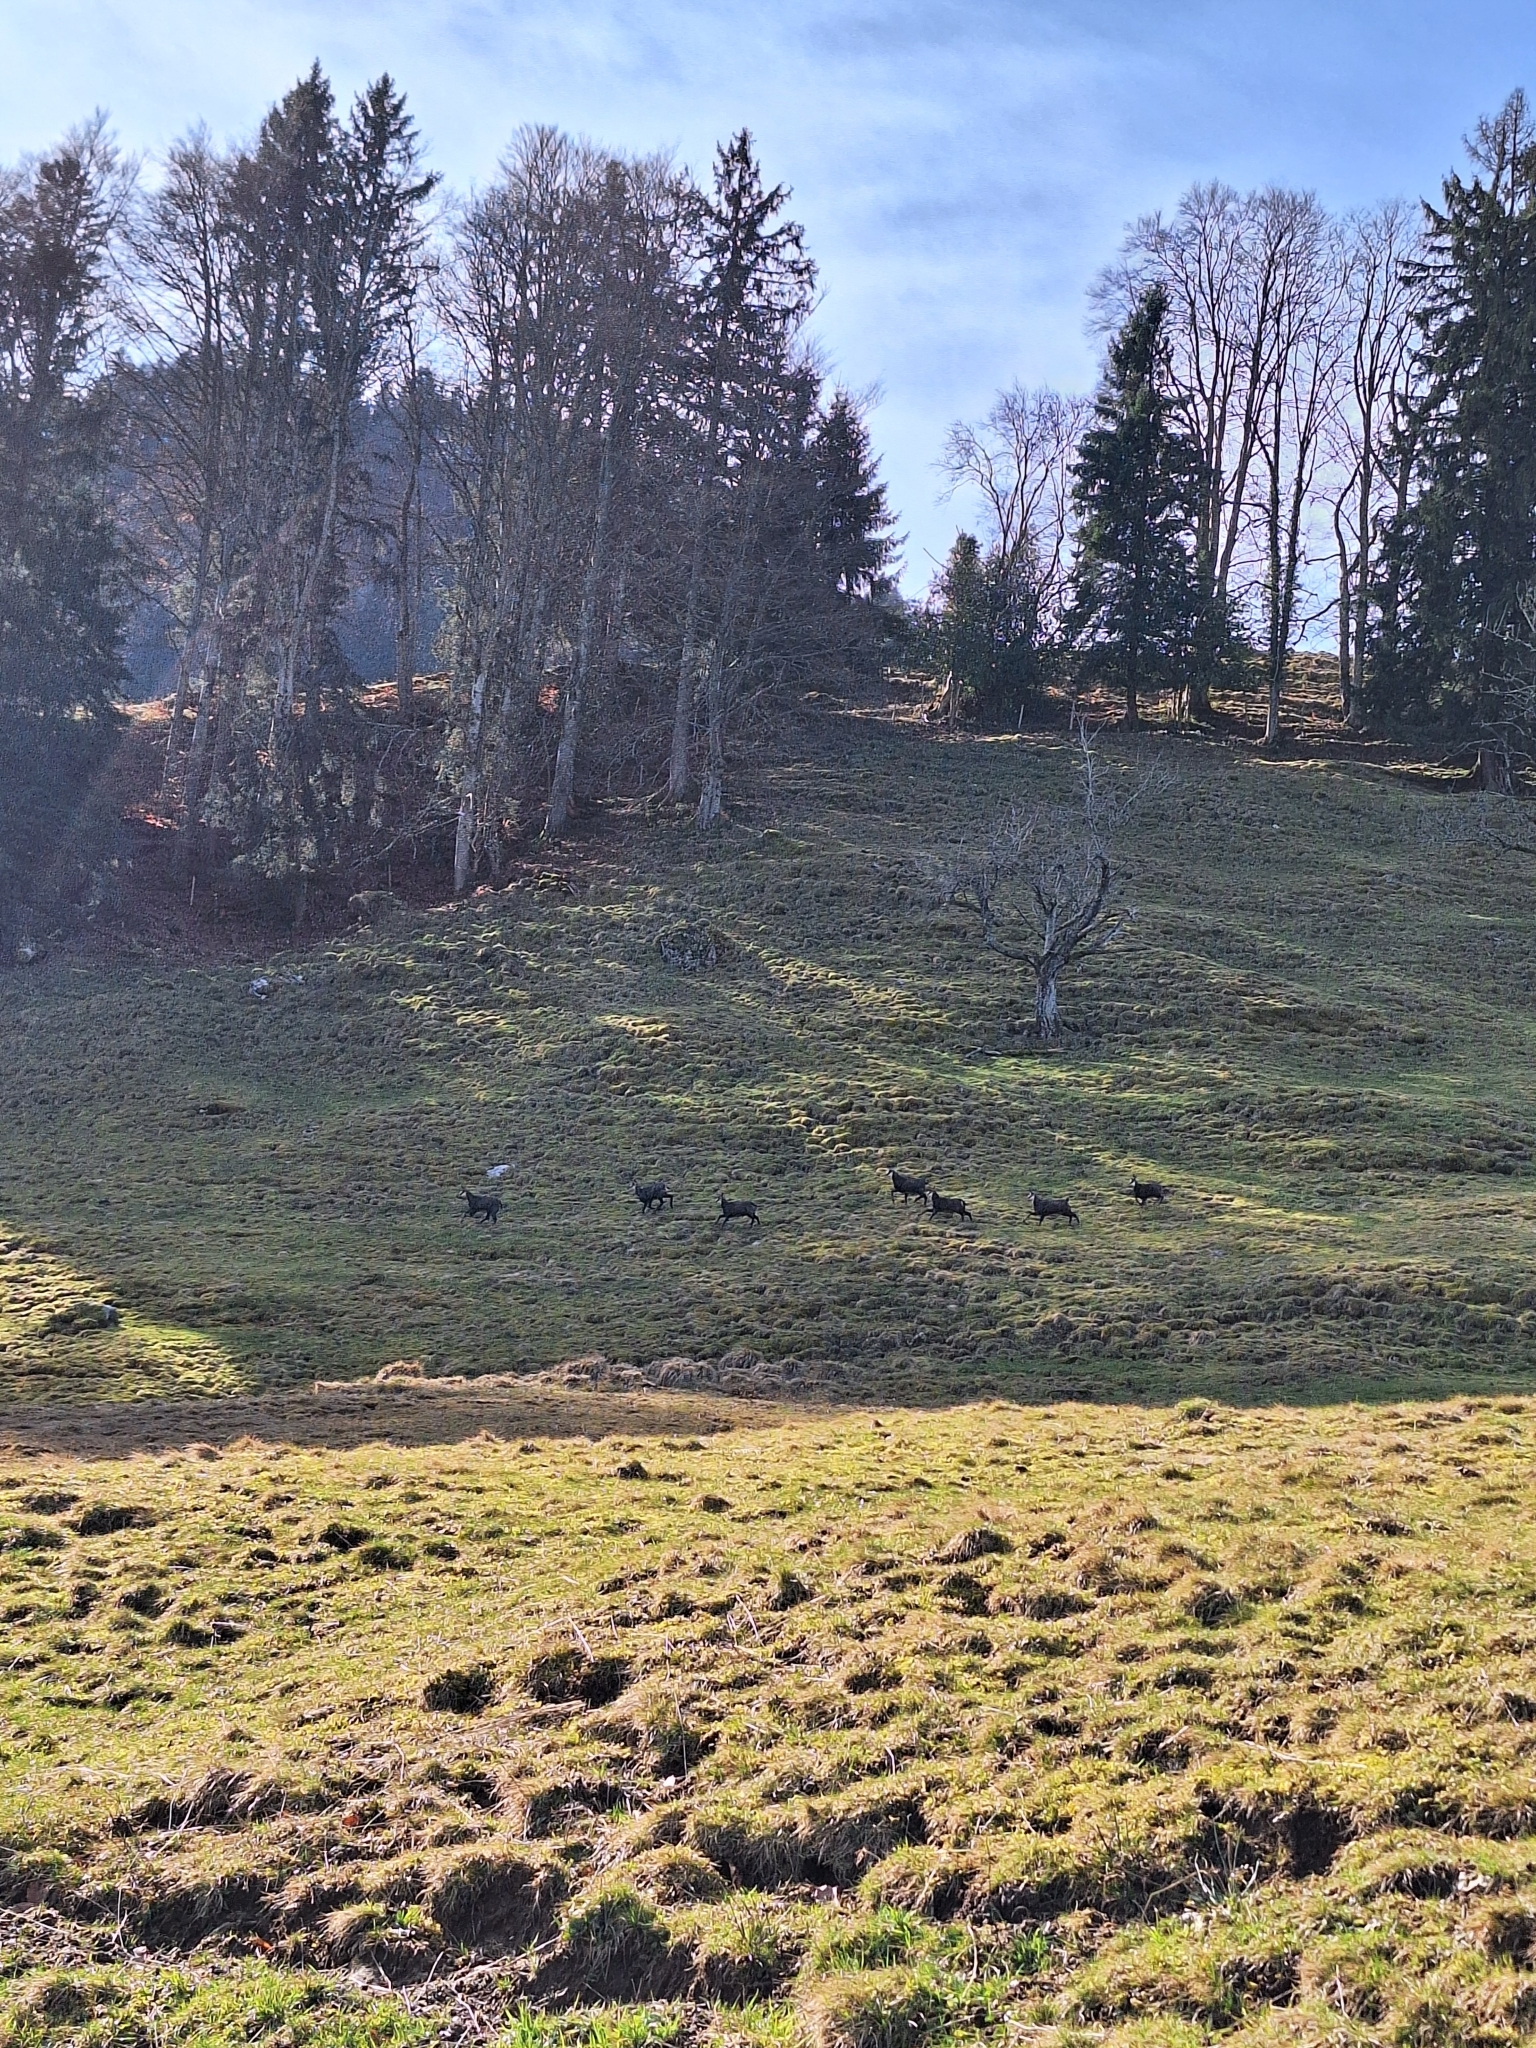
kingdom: Animalia
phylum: Chordata
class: Mammalia
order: Artiodactyla
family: Bovidae
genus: Rupicapra
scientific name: Rupicapra rupicapra
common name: Chamois
